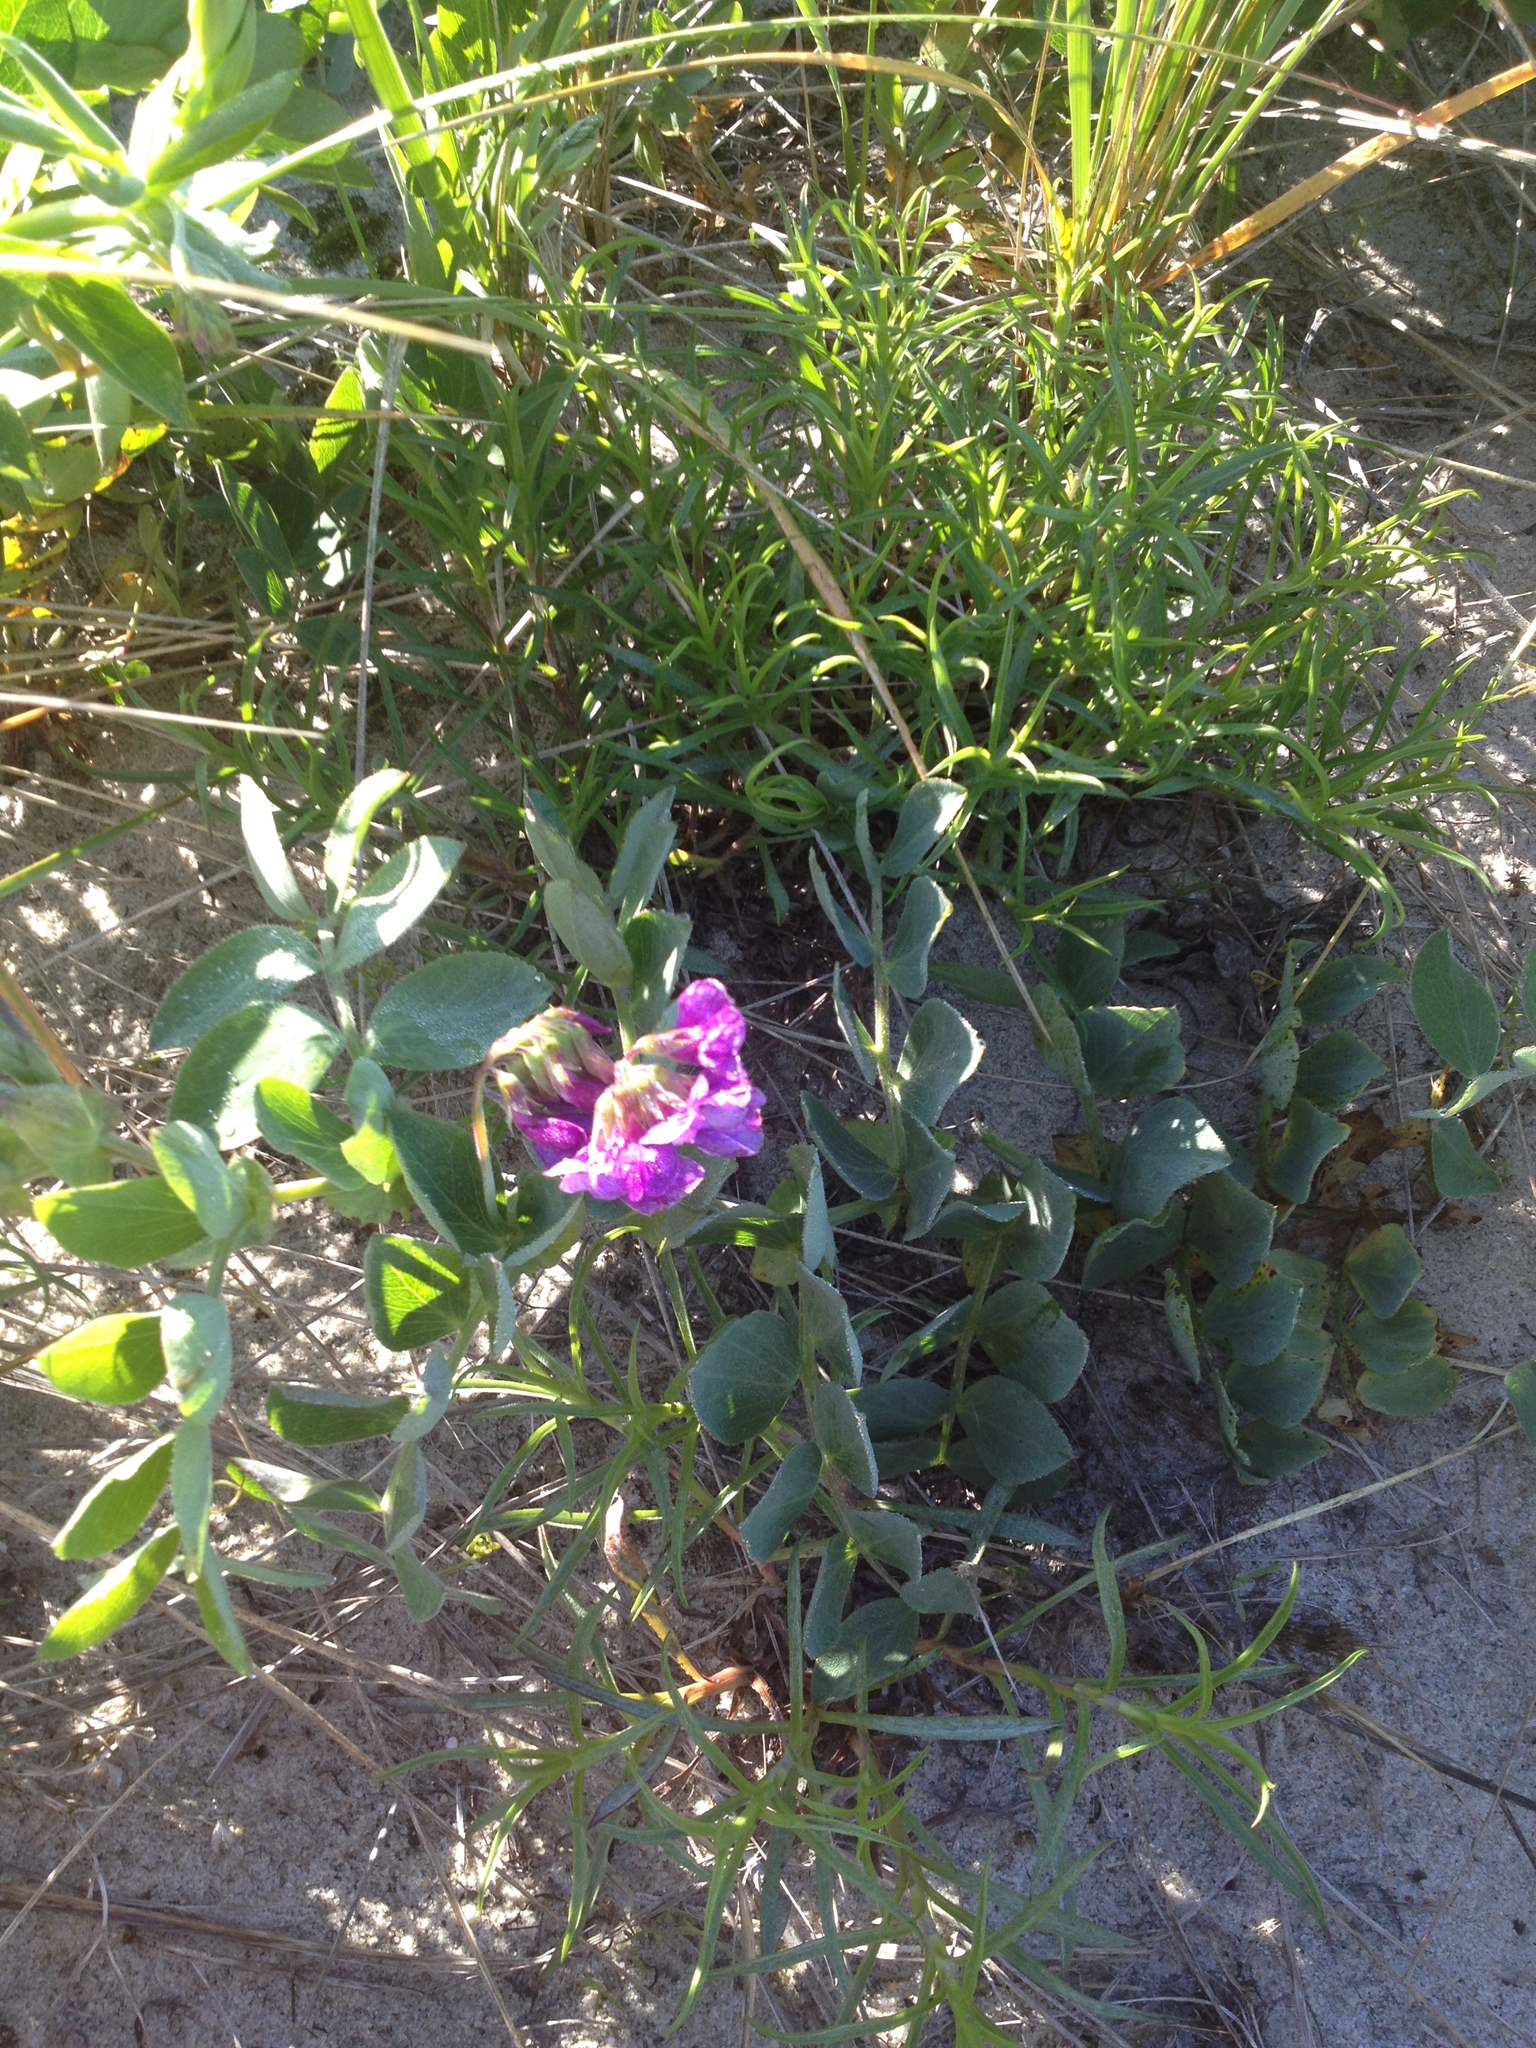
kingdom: Plantae
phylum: Tracheophyta
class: Magnoliopsida
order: Fabales
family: Fabaceae
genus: Lathyrus
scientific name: Lathyrus japonicus
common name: Sea pea
